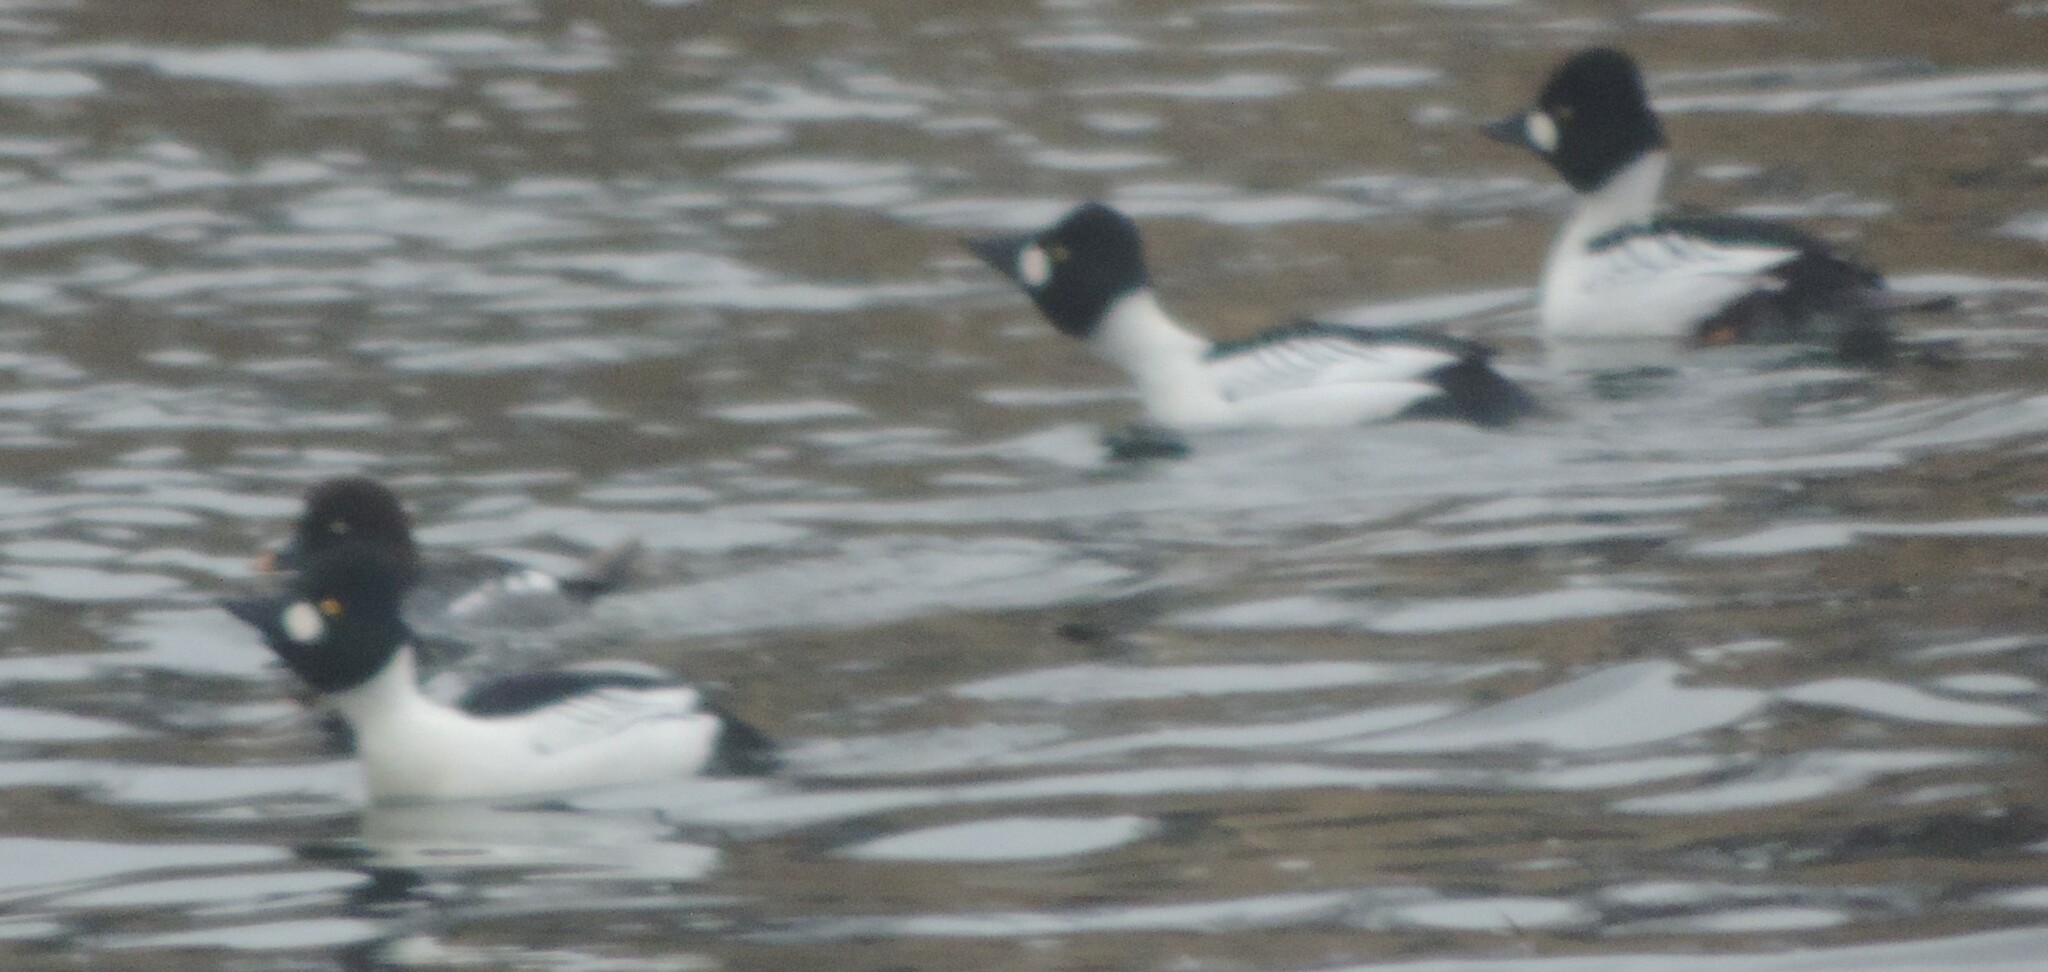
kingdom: Animalia
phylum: Chordata
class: Aves
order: Anseriformes
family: Anatidae
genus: Bucephala
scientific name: Bucephala clangula
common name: Common goldeneye
